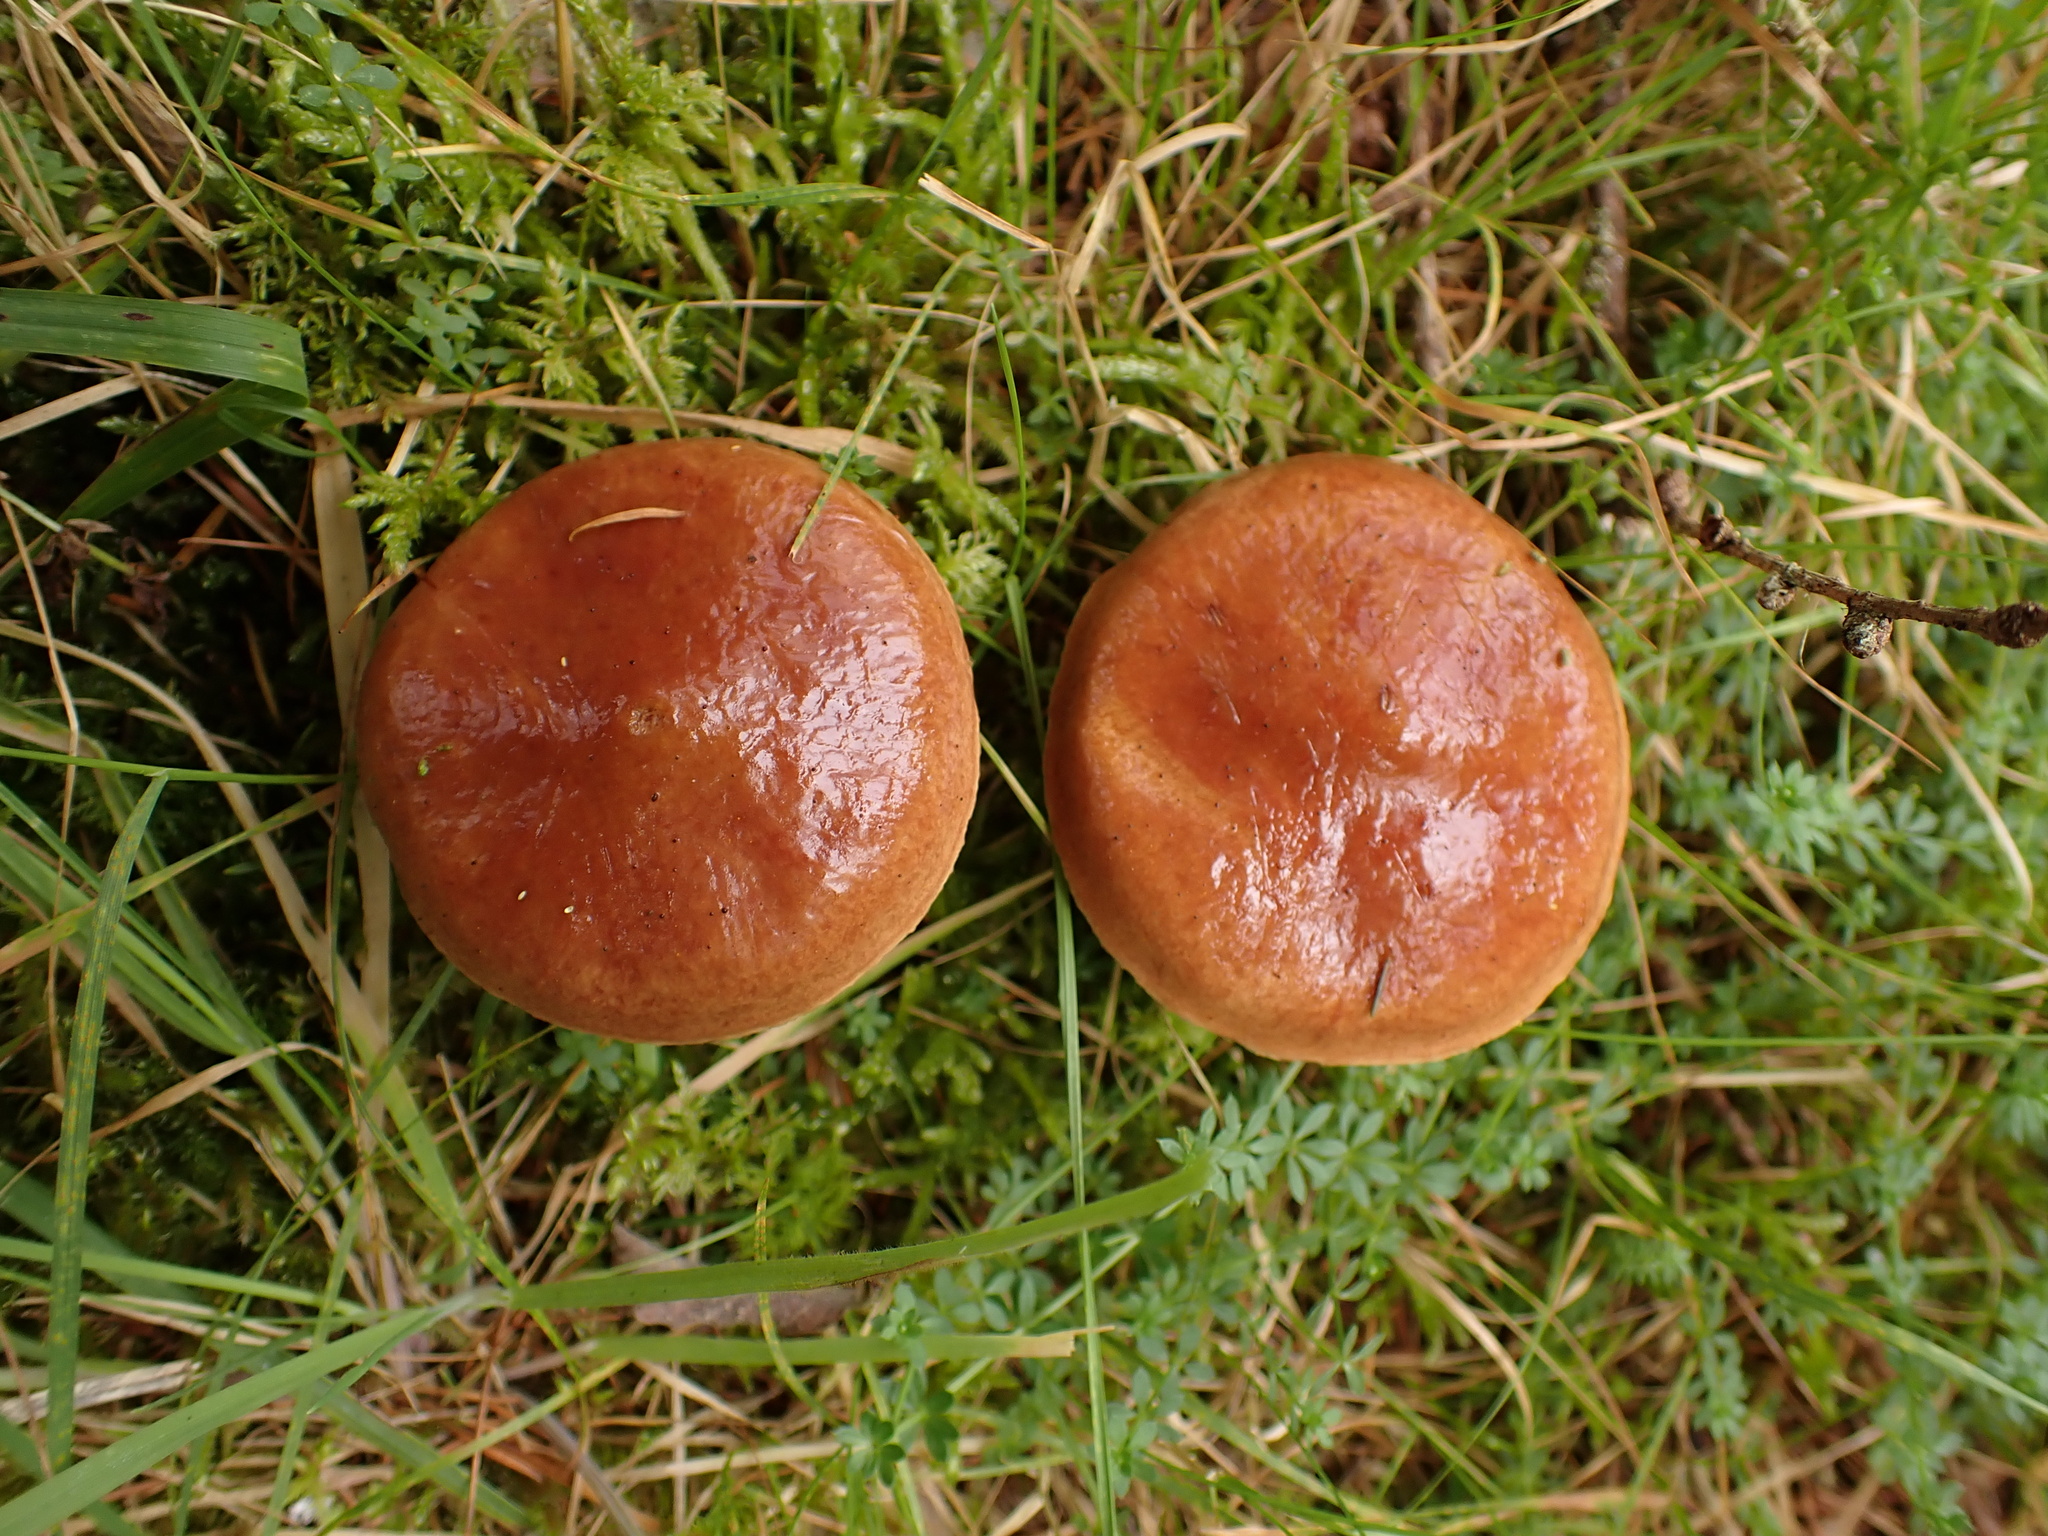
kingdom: Fungi
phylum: Basidiomycota
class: Agaricomycetes
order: Boletales
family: Suillaceae
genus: Suillus
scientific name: Suillus grevillei
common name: Larch bolete
